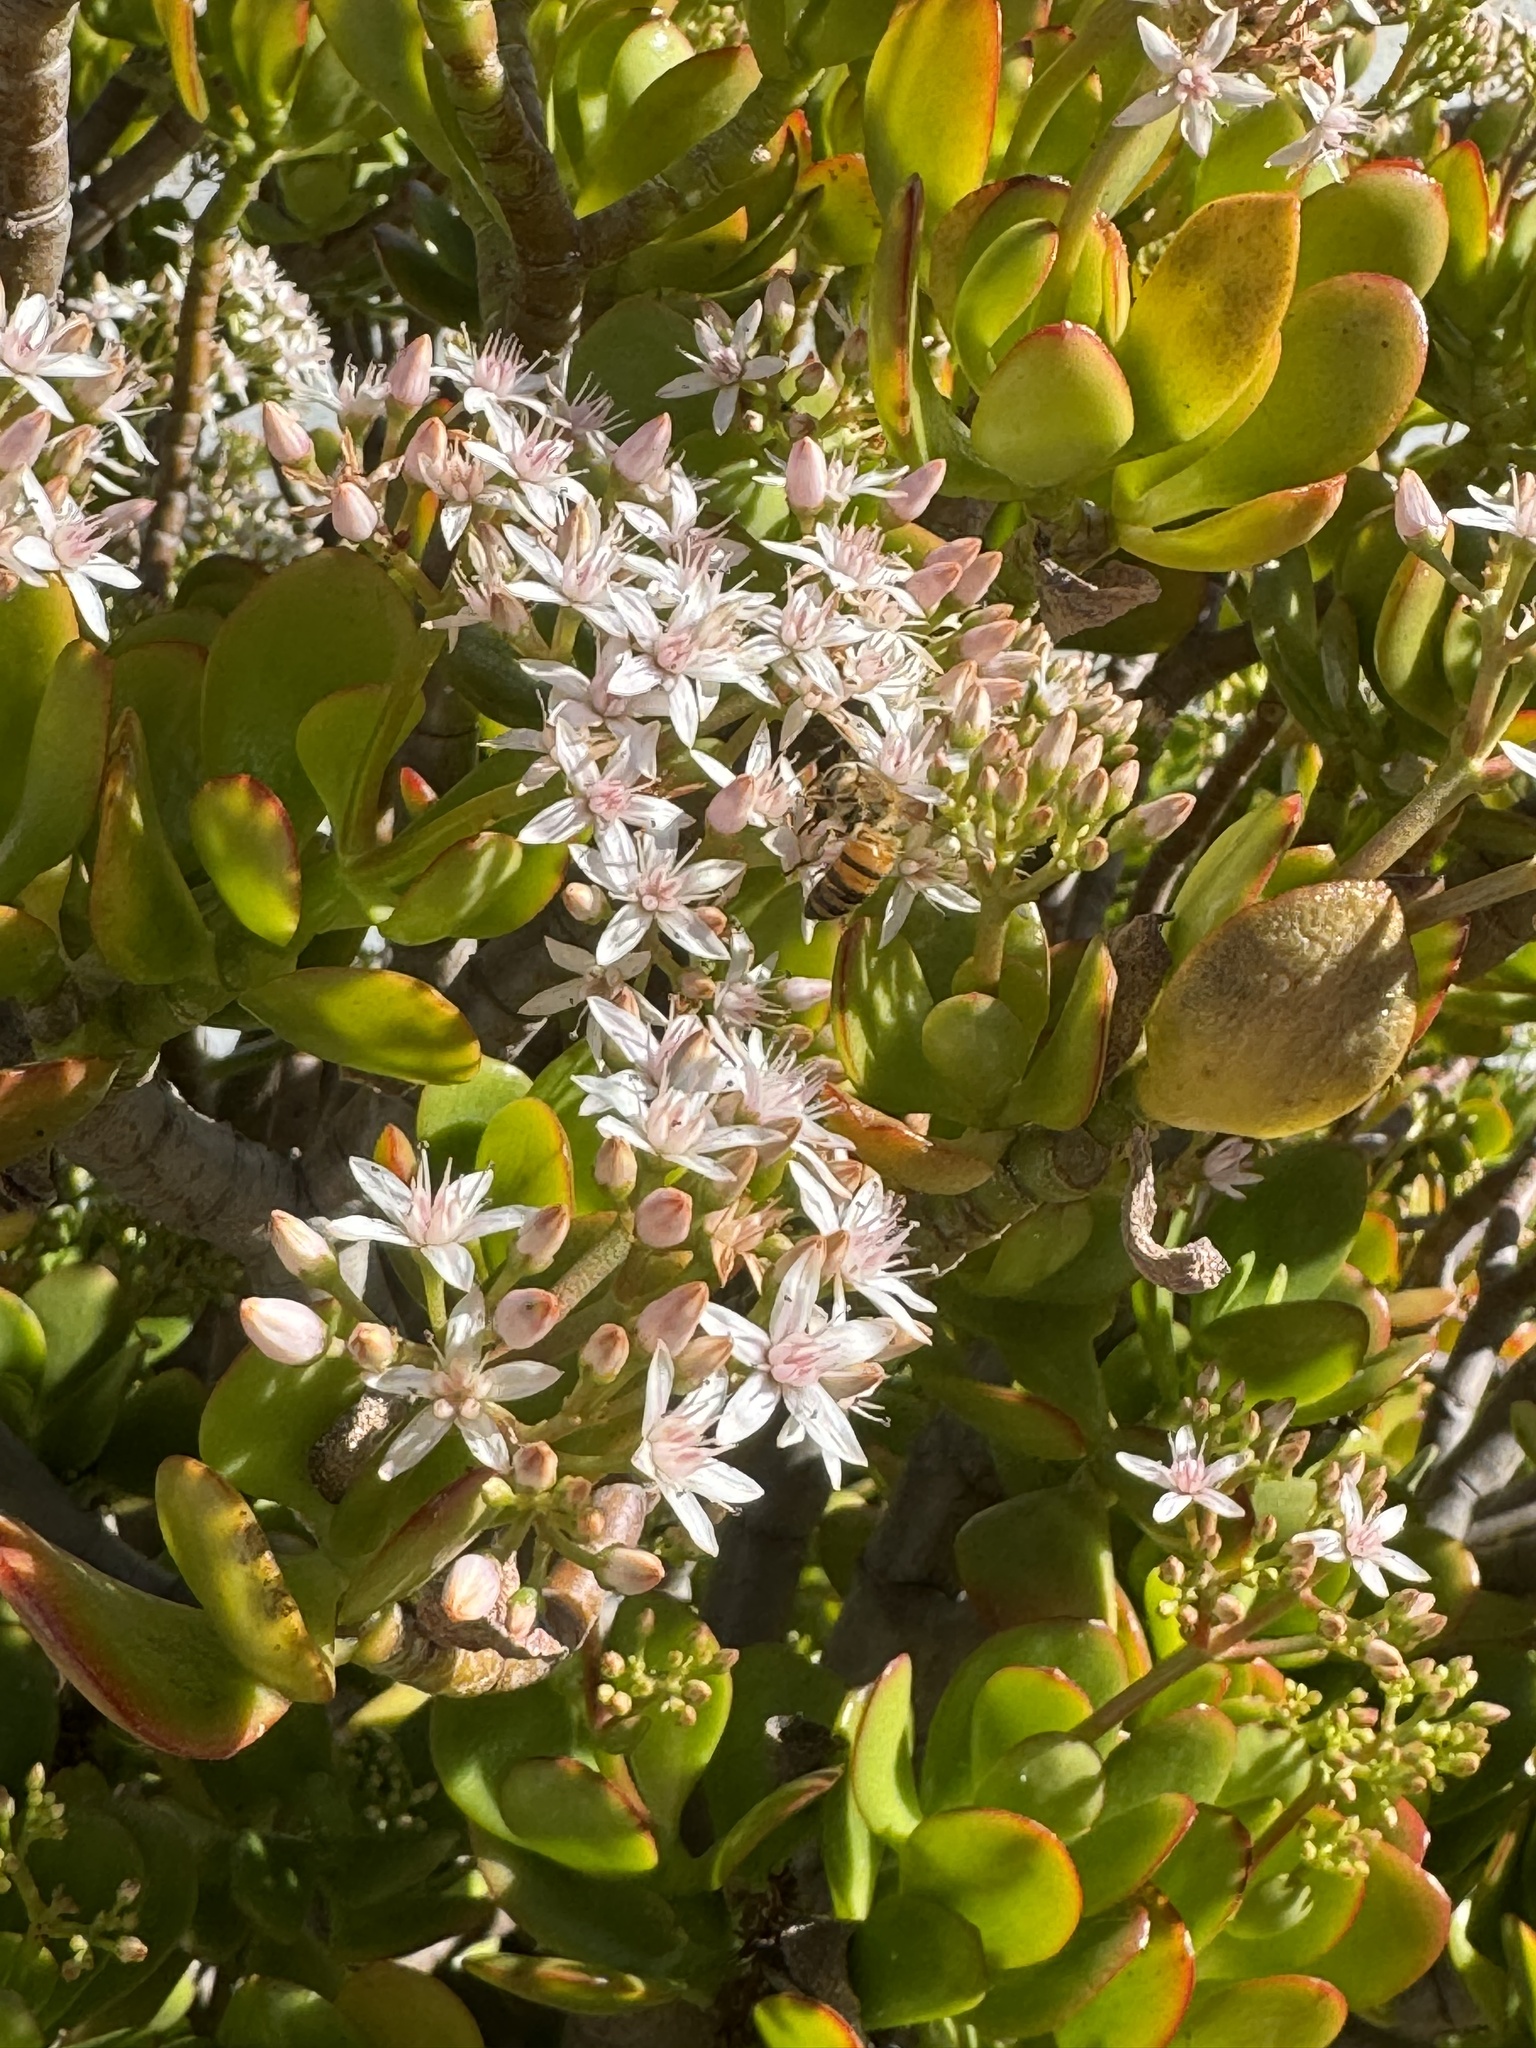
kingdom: Animalia
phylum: Arthropoda
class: Insecta
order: Hymenoptera
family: Apidae
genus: Apis
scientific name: Apis mellifera
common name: Honey bee
